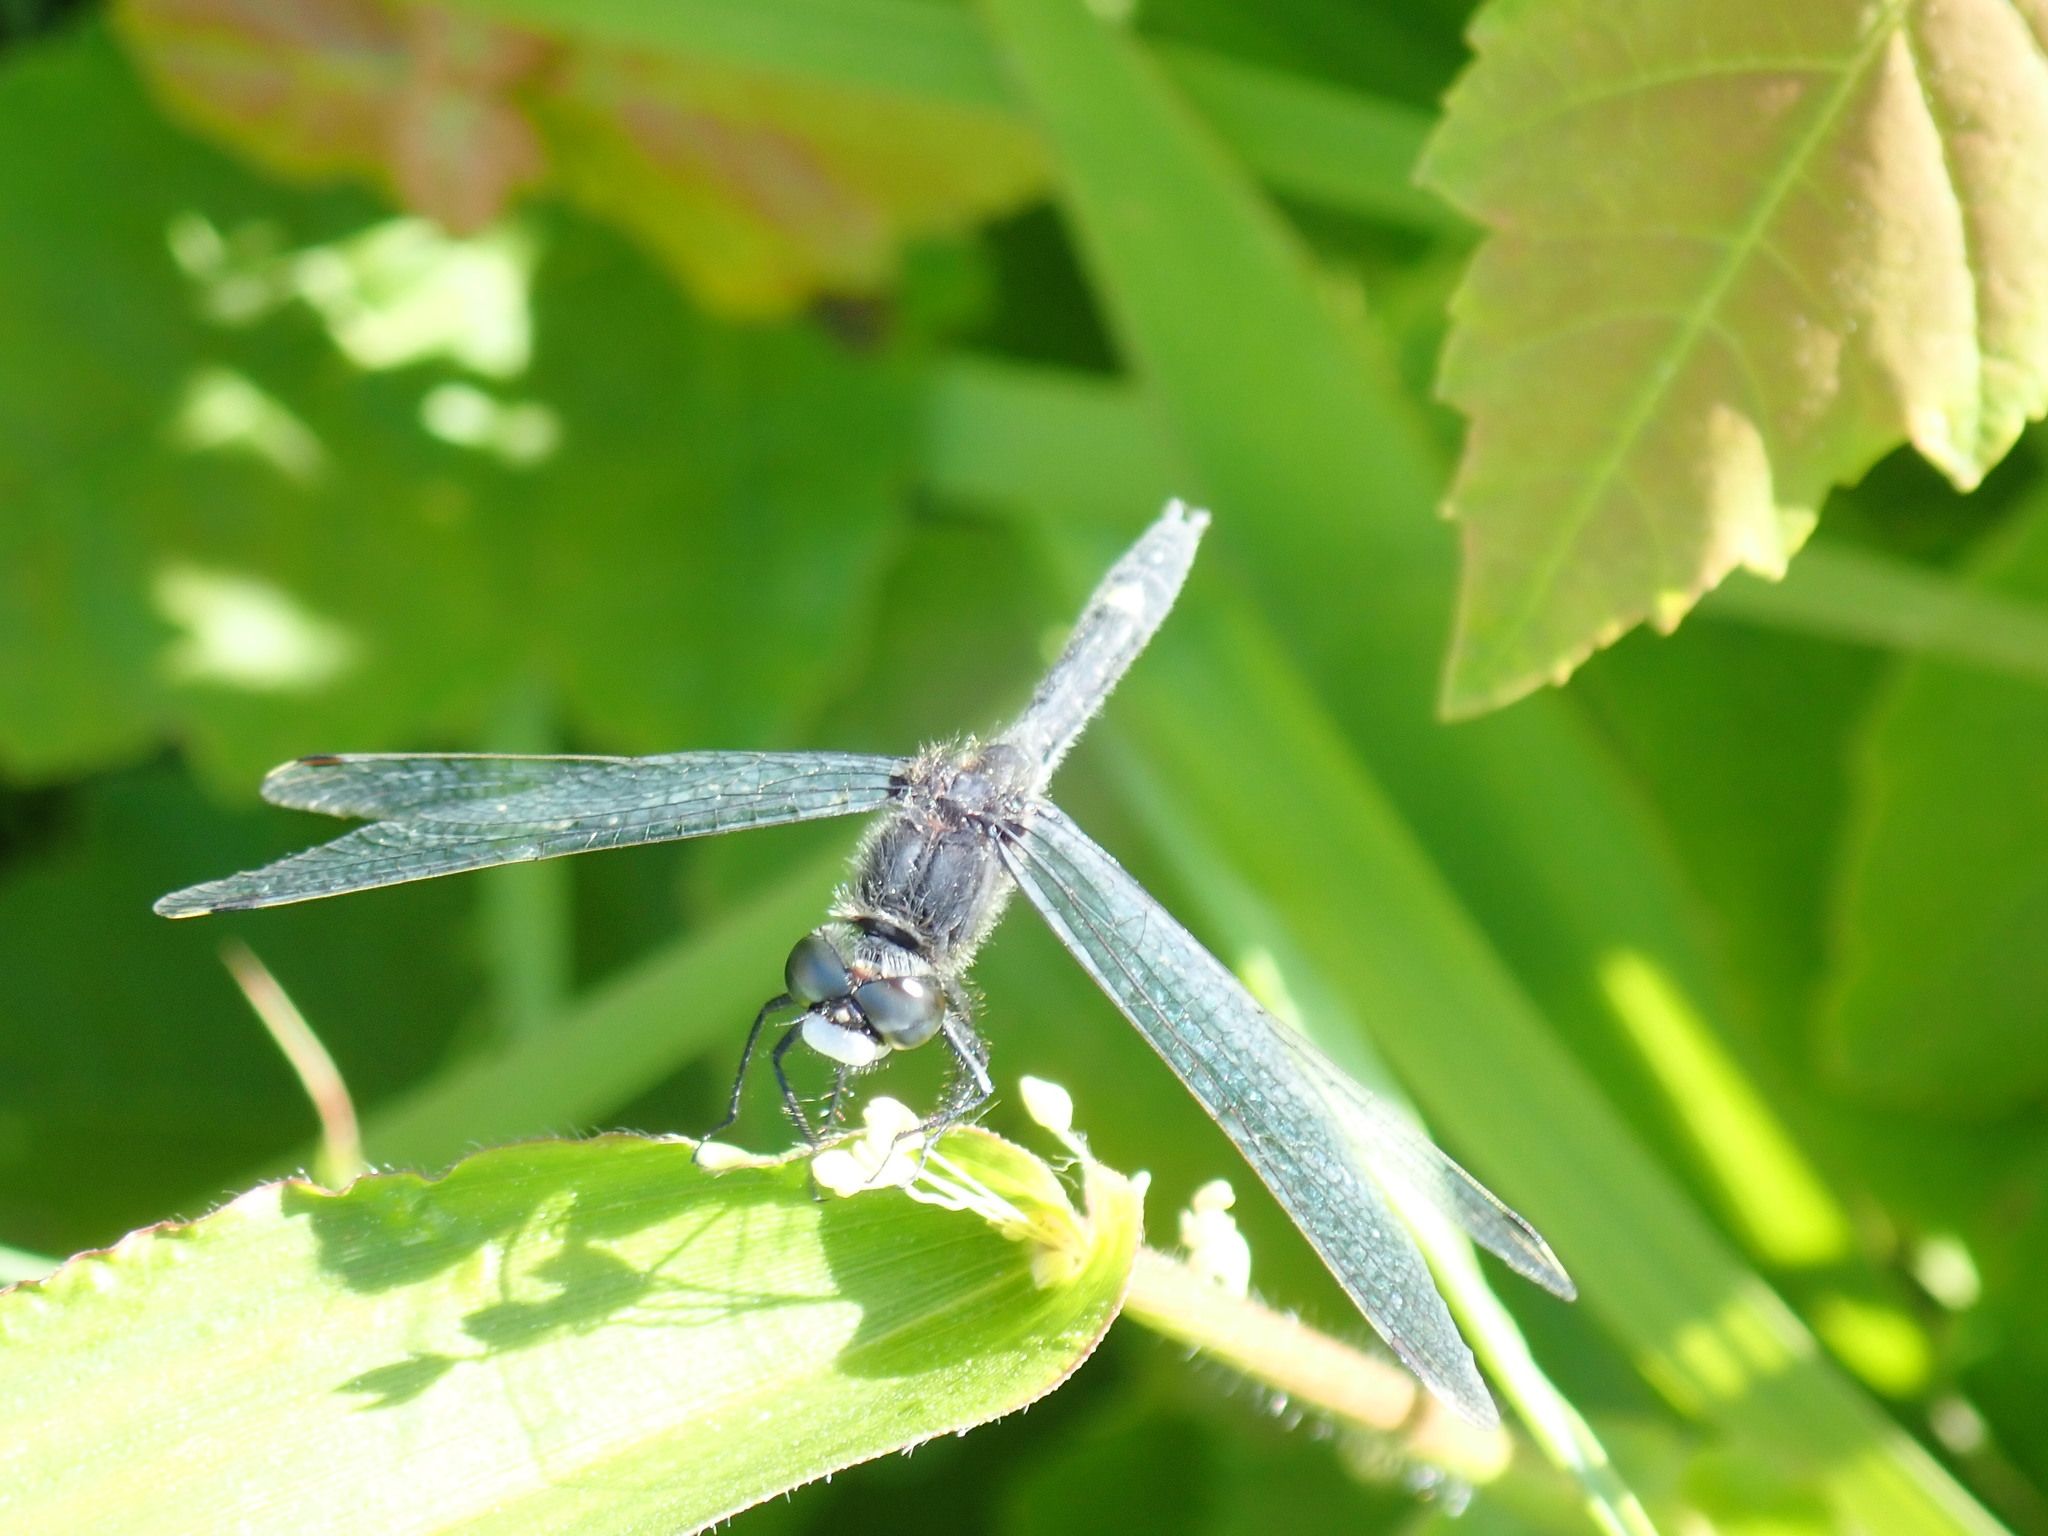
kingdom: Animalia
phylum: Arthropoda
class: Insecta
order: Odonata
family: Libellulidae
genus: Leucorrhinia
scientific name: Leucorrhinia intacta
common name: Dot-tailed whiteface
